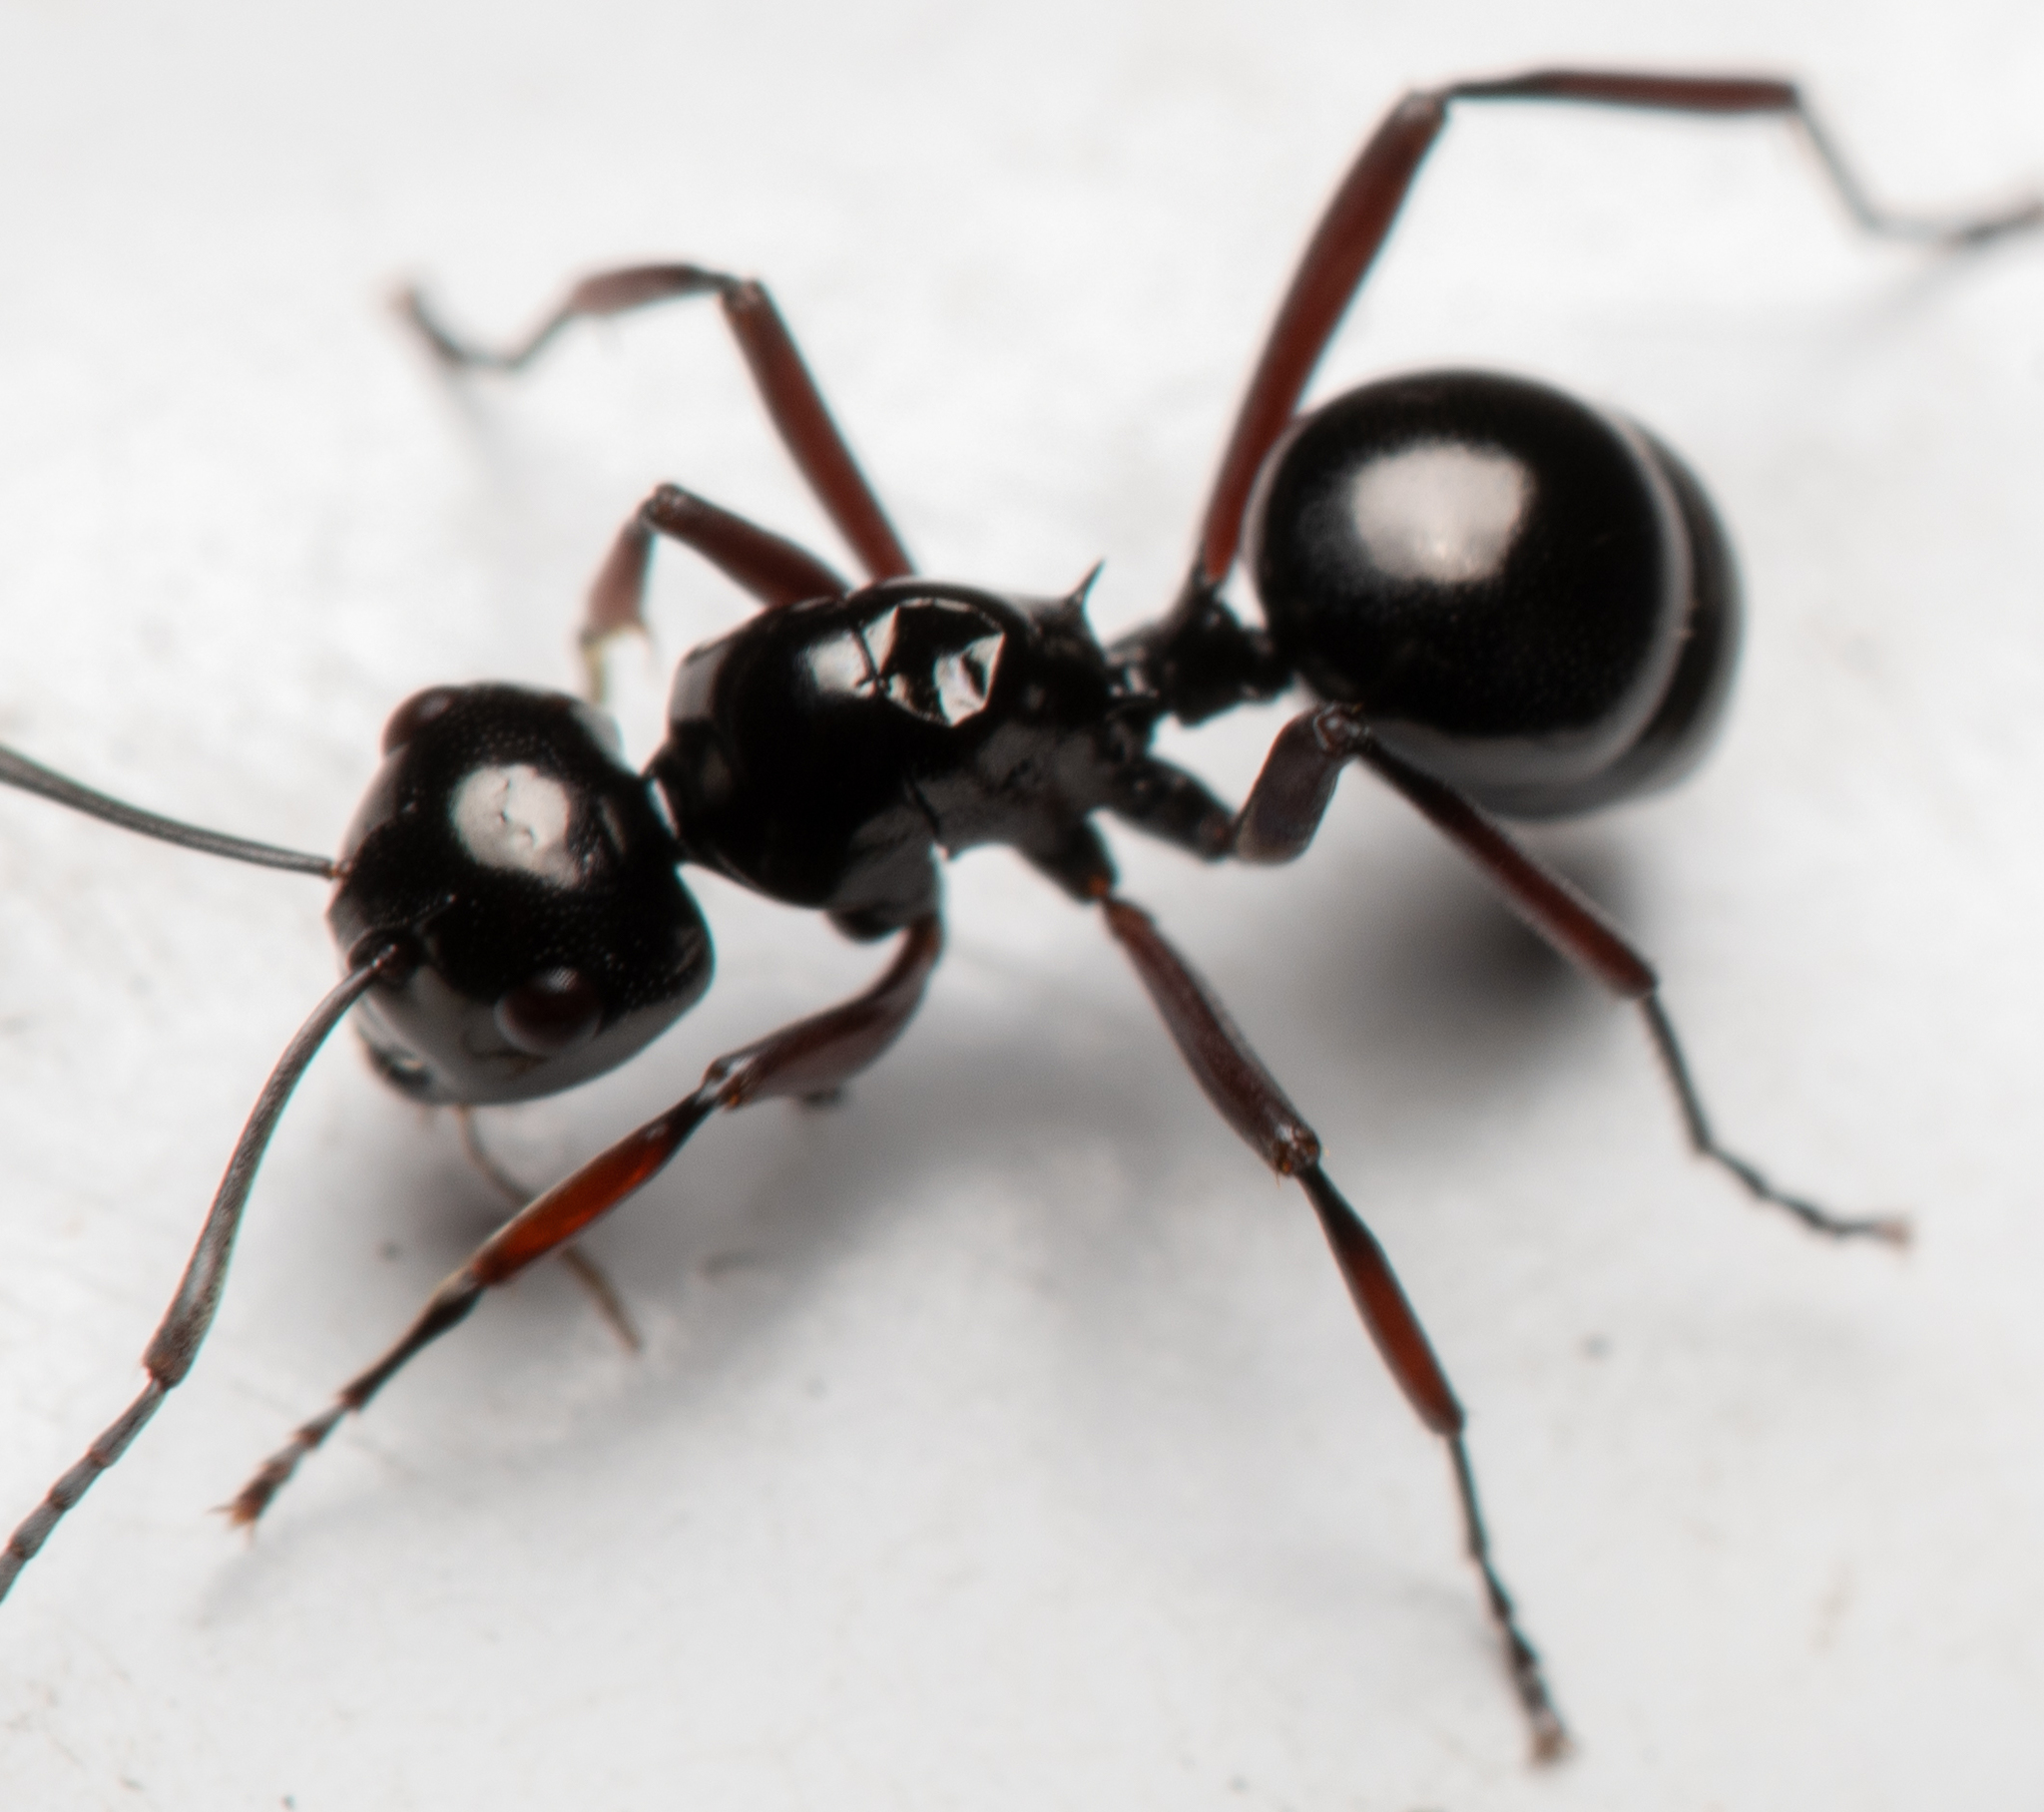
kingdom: Animalia
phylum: Arthropoda
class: Insecta
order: Hymenoptera
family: Formicidae
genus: Polyrhachis
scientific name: Polyrhachis australis
